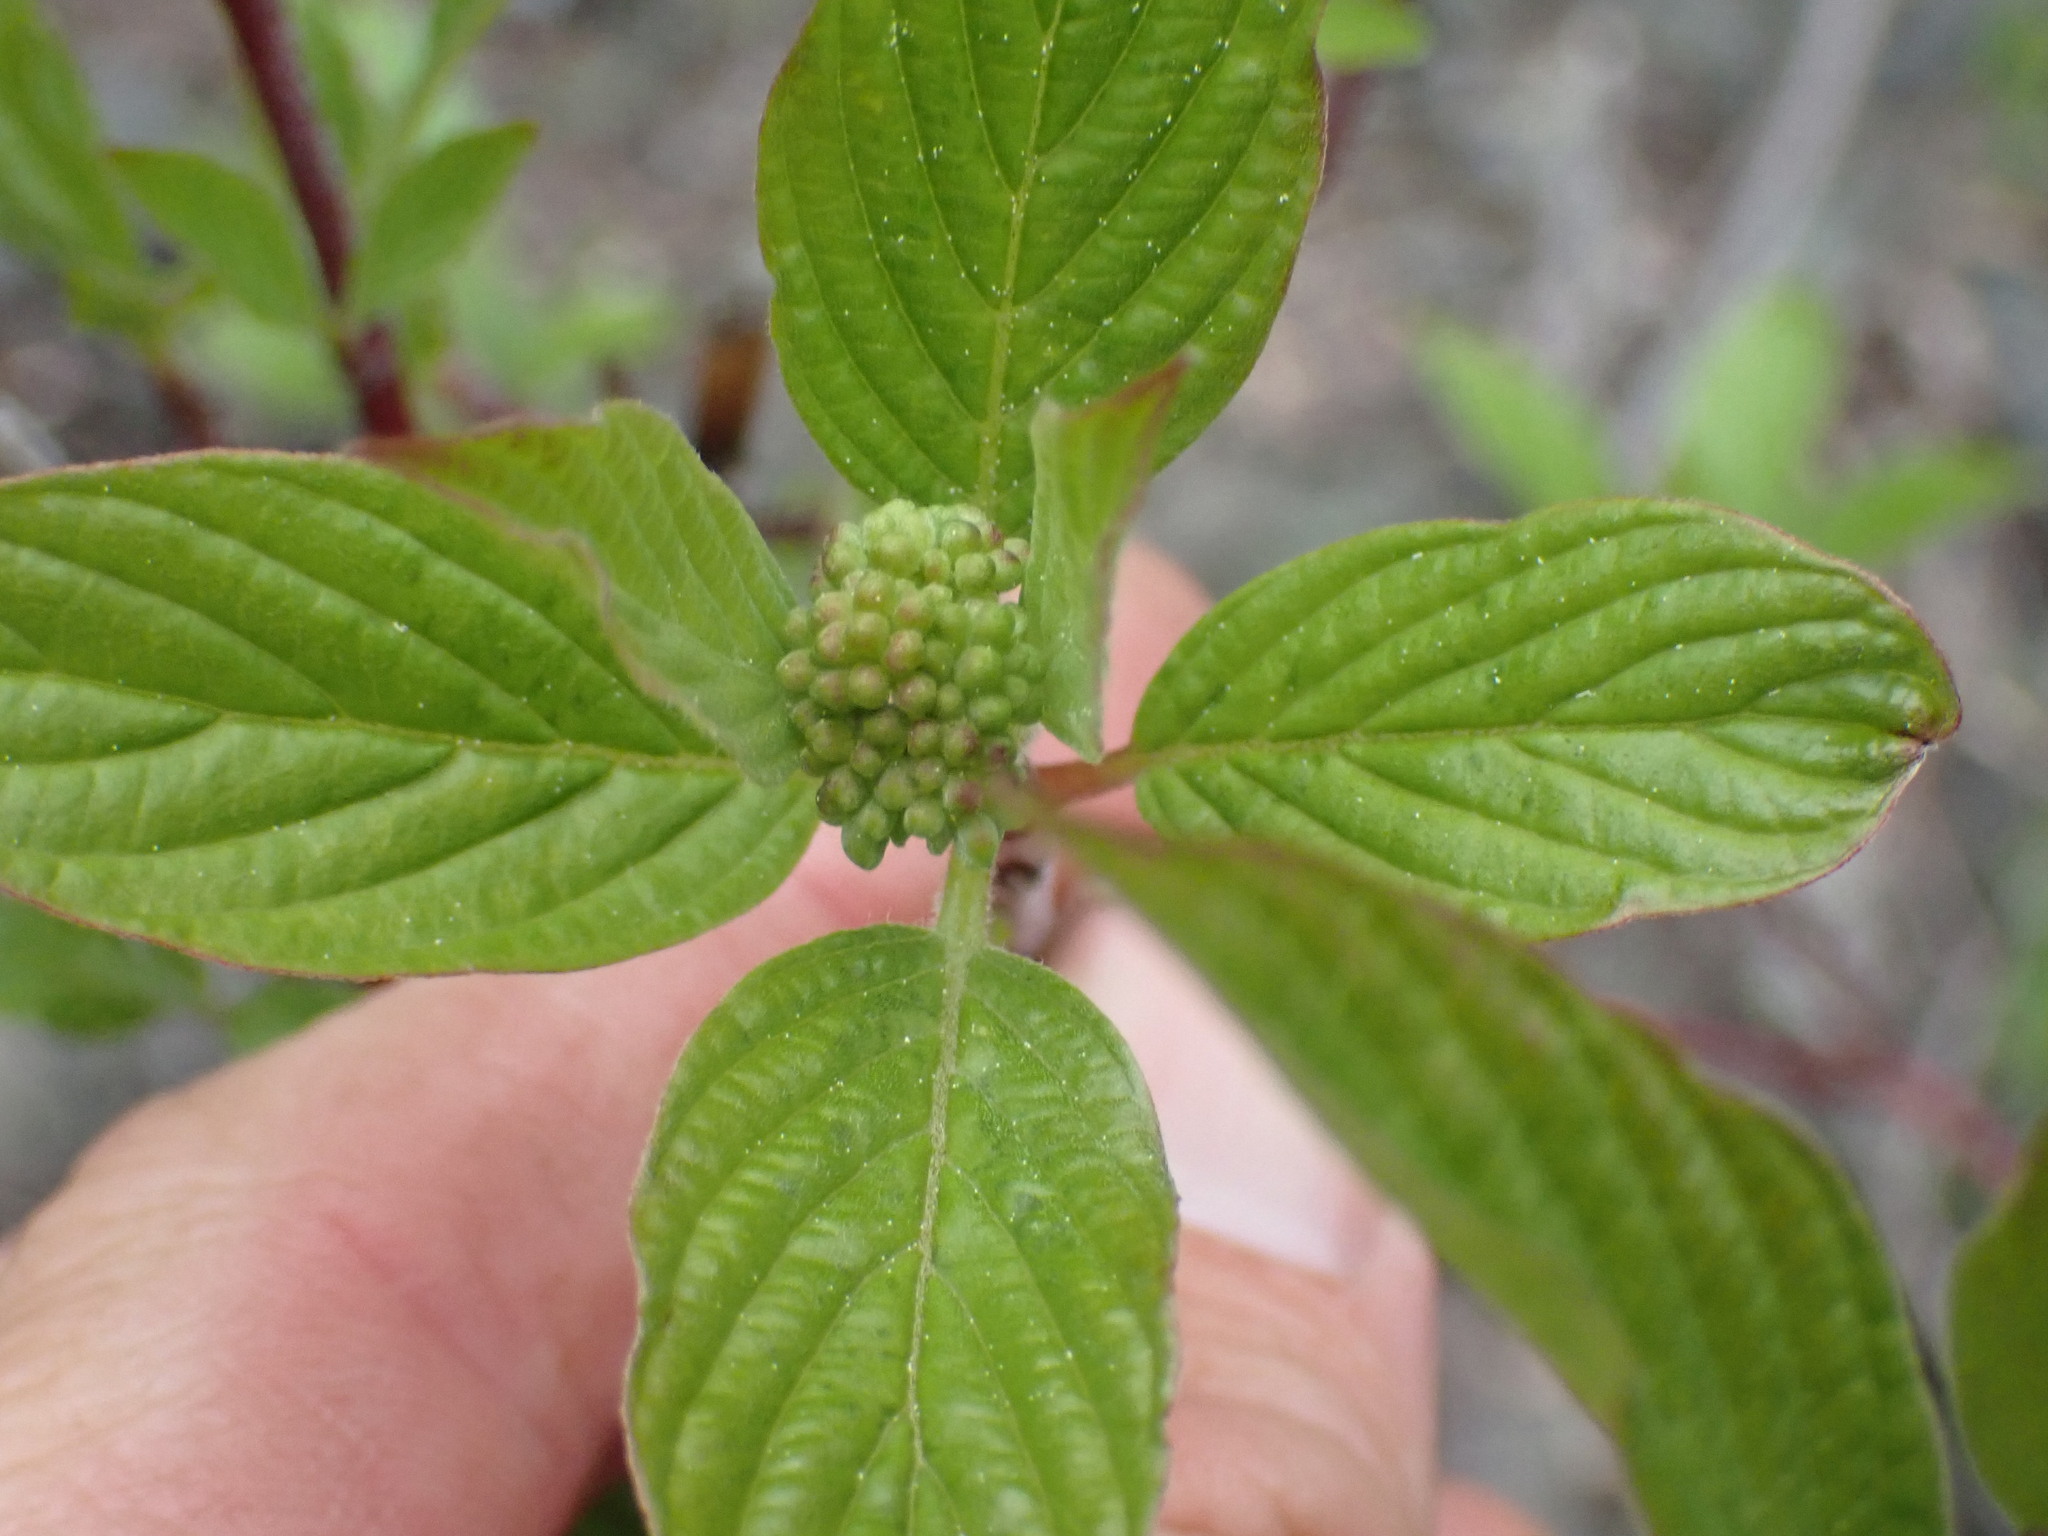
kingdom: Plantae
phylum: Tracheophyta
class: Magnoliopsida
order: Cornales
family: Cornaceae
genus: Cornus
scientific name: Cornus sericea
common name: Red-osier dogwood
